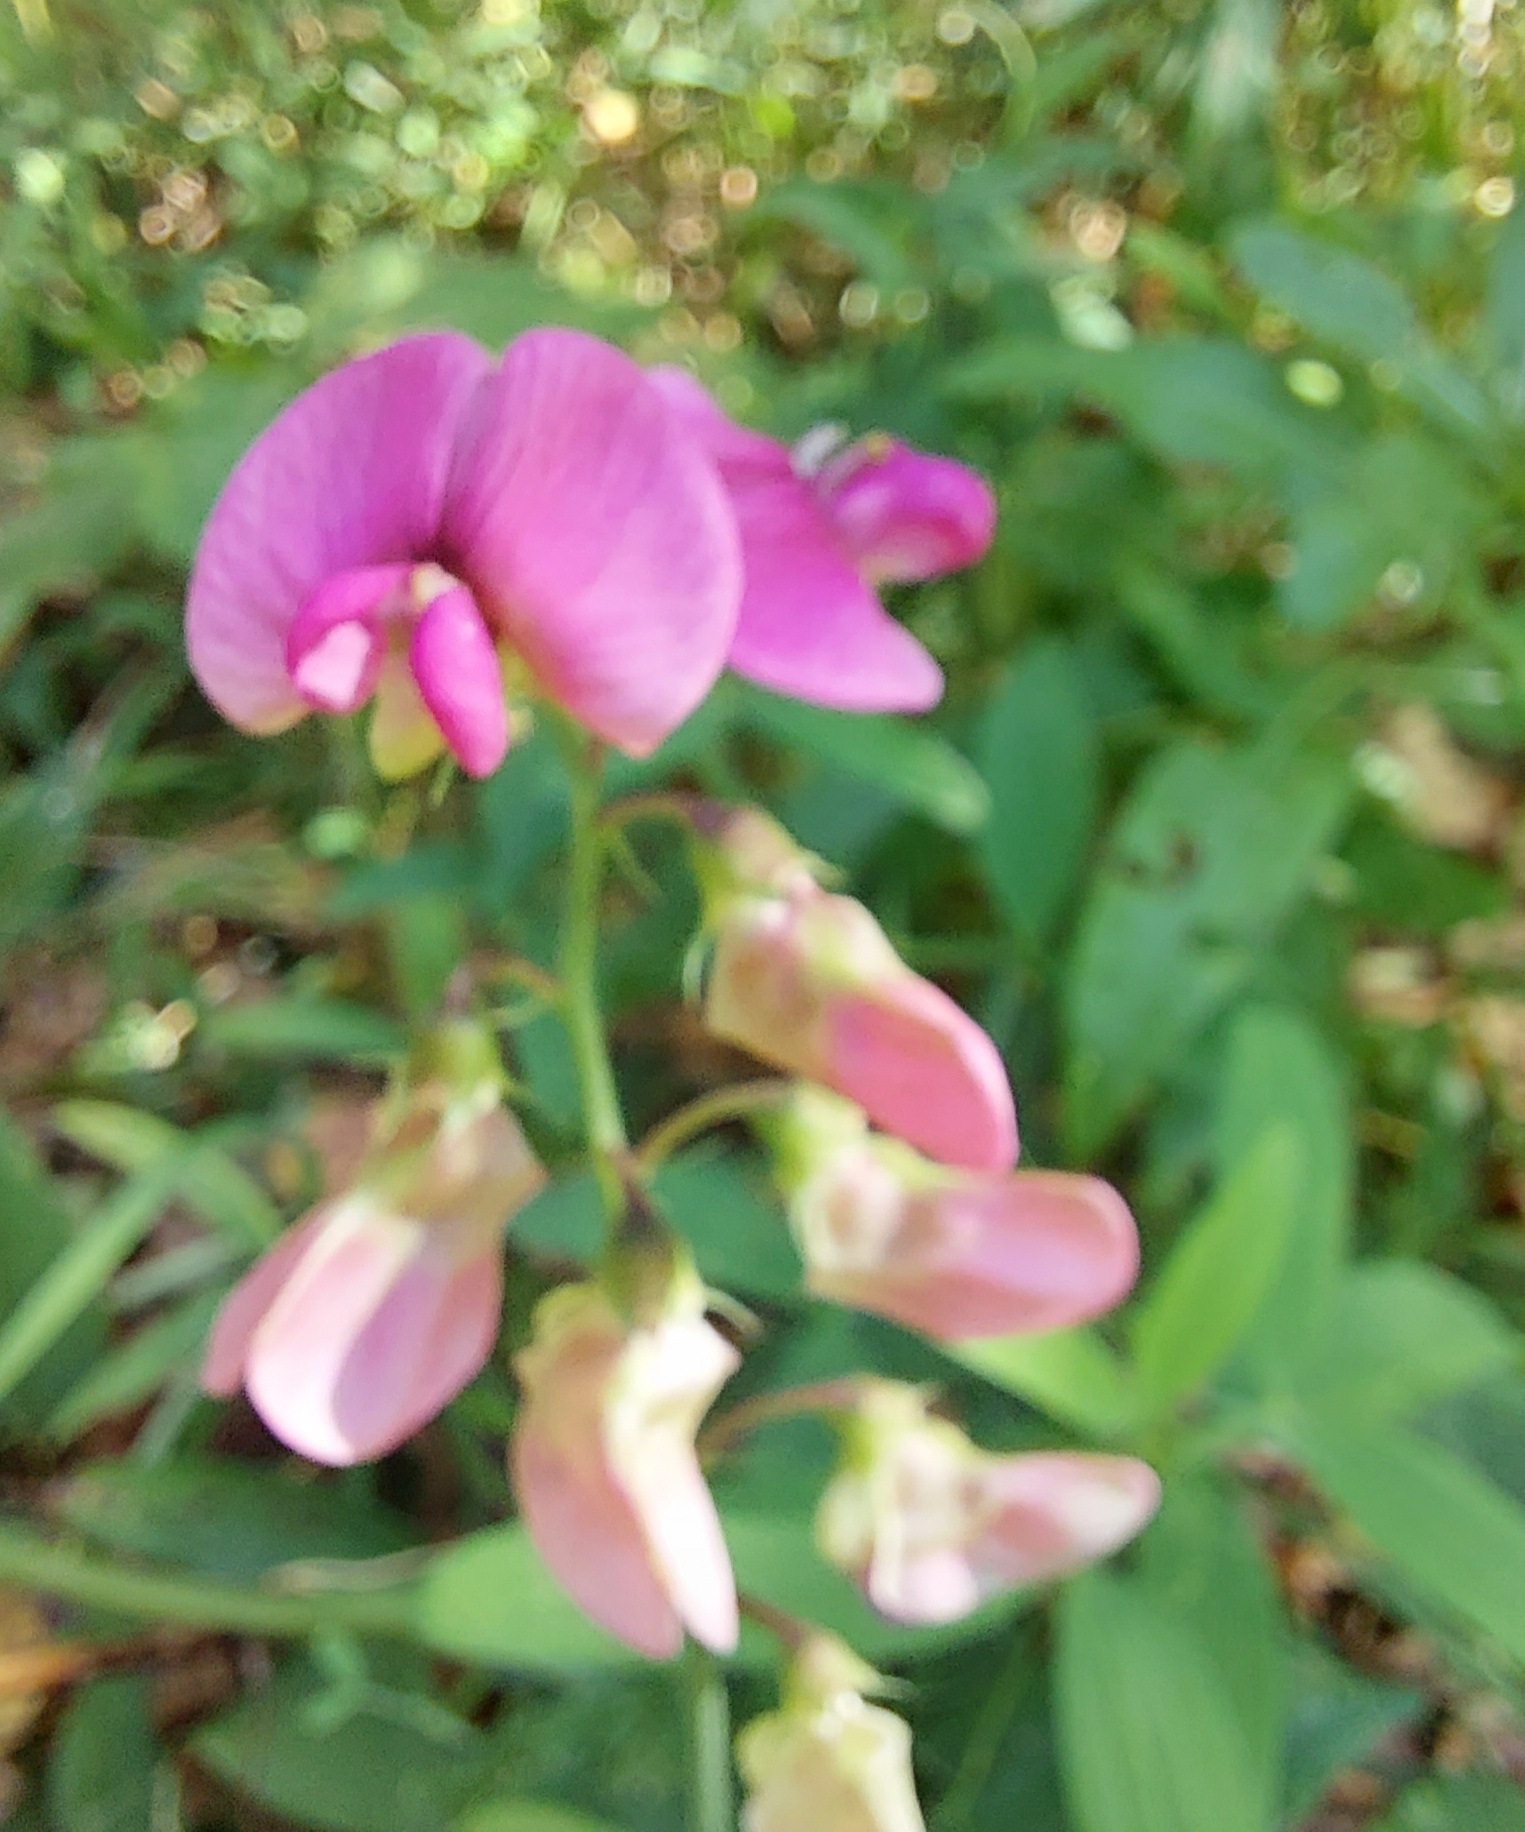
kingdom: Plantae
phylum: Tracheophyta
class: Magnoliopsida
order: Fabales
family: Fabaceae
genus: Lathyrus
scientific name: Lathyrus sylvestris
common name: Flat pea
